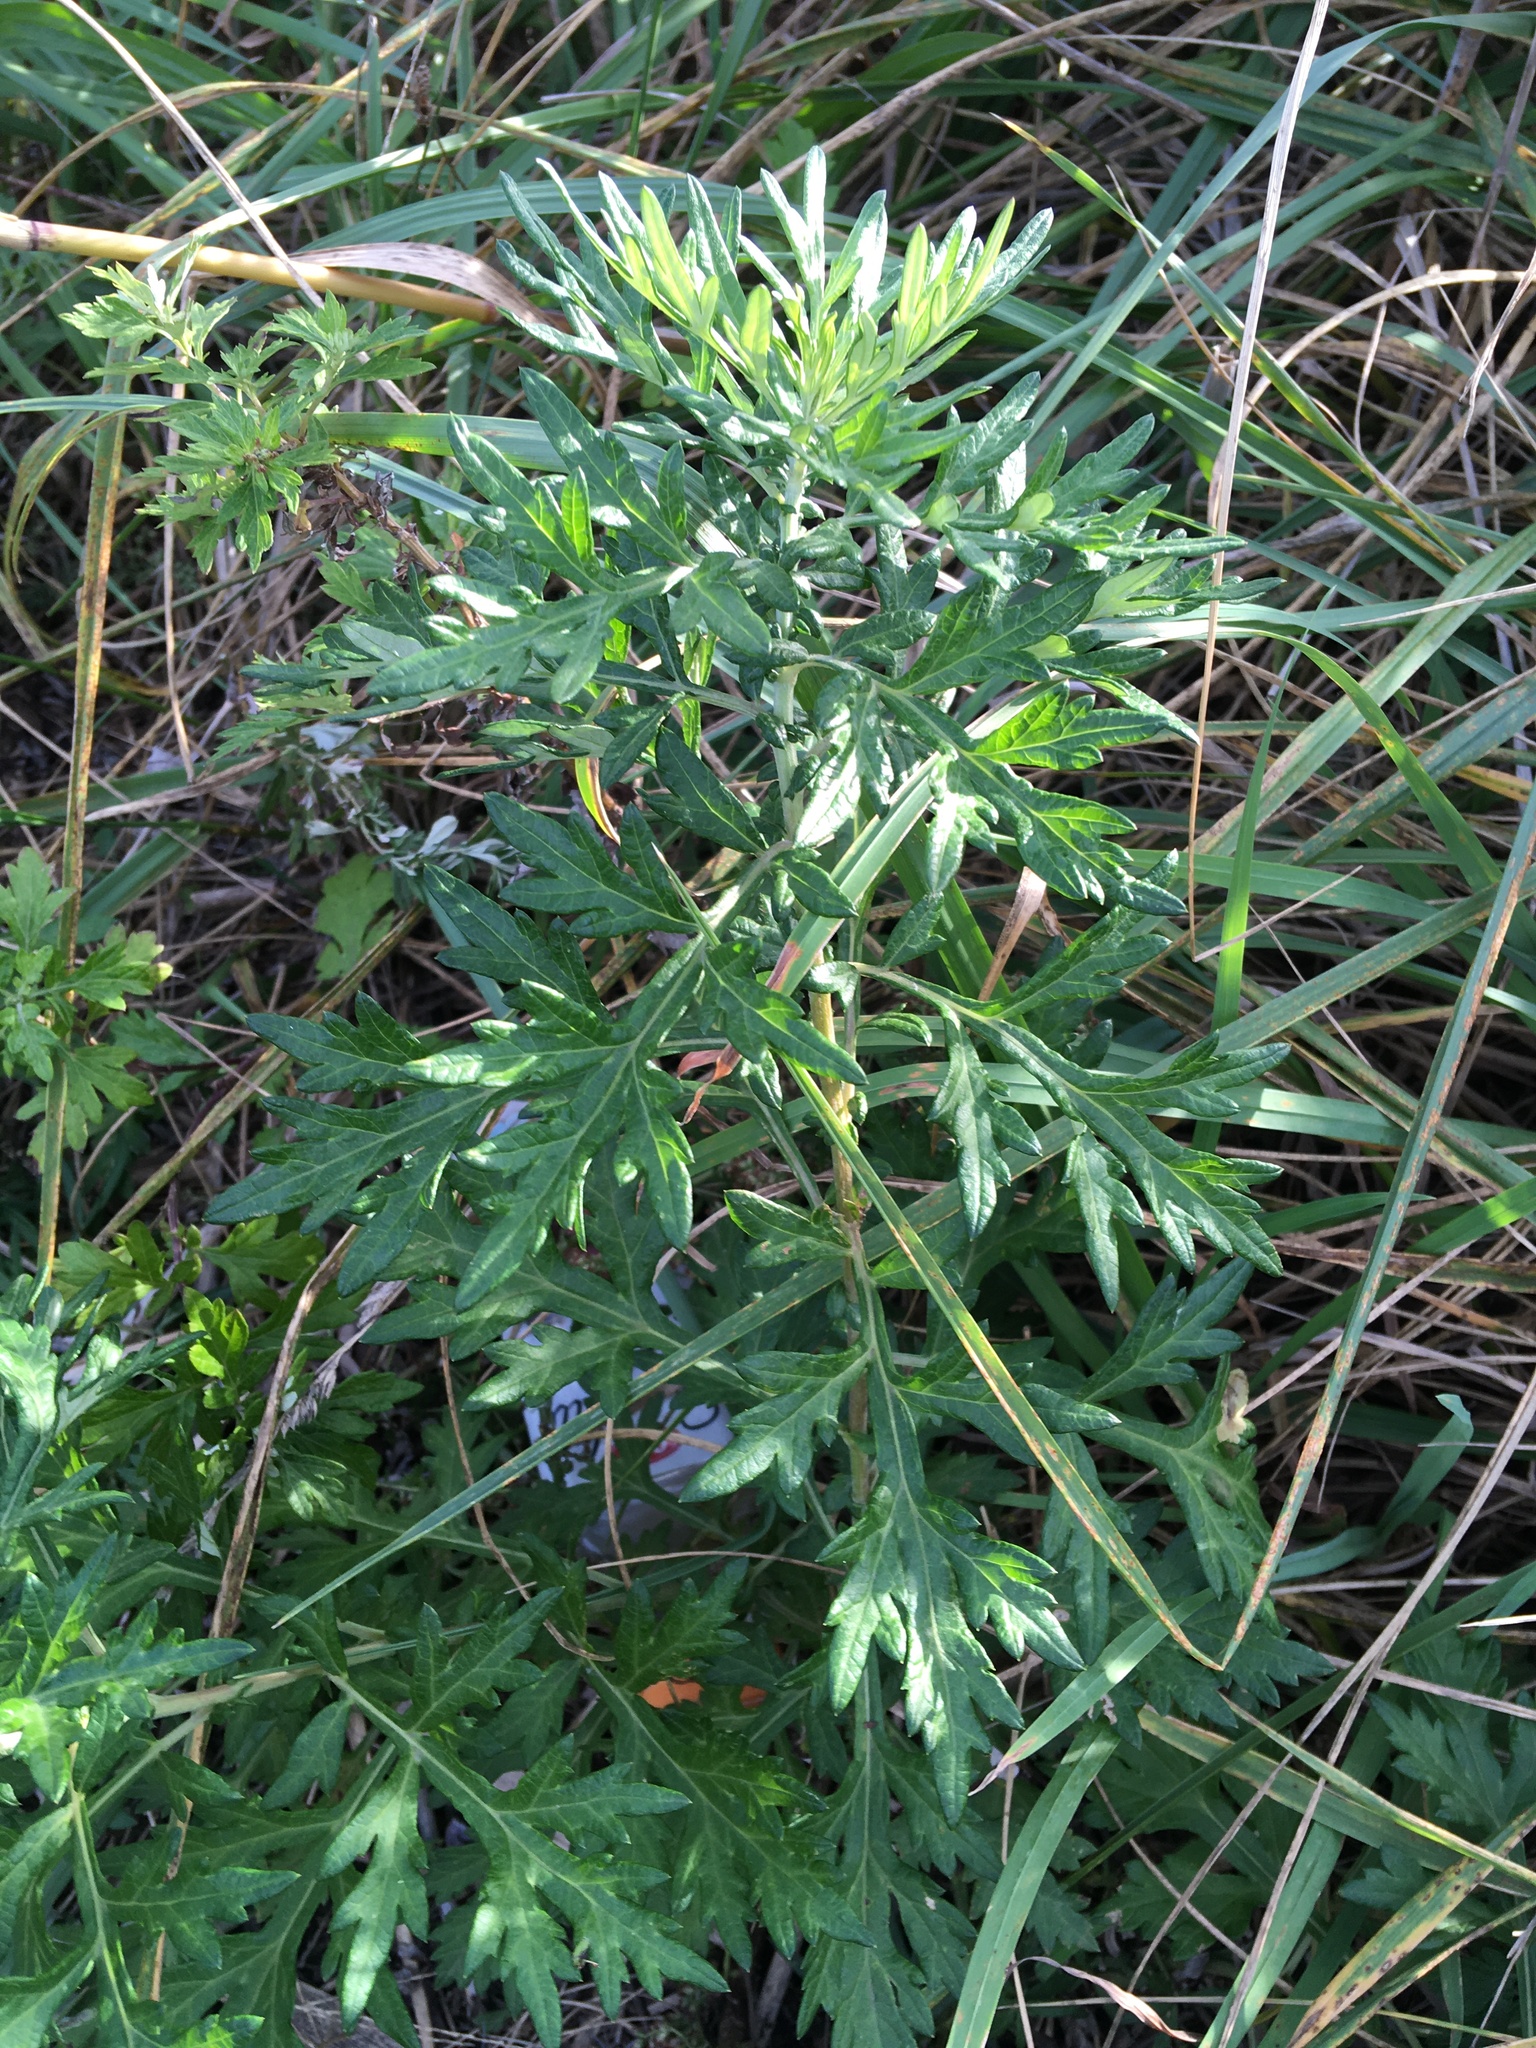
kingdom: Plantae
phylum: Tracheophyta
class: Magnoliopsida
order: Asterales
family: Asteraceae
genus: Artemisia
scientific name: Artemisia vulgaris
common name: Mugwort
